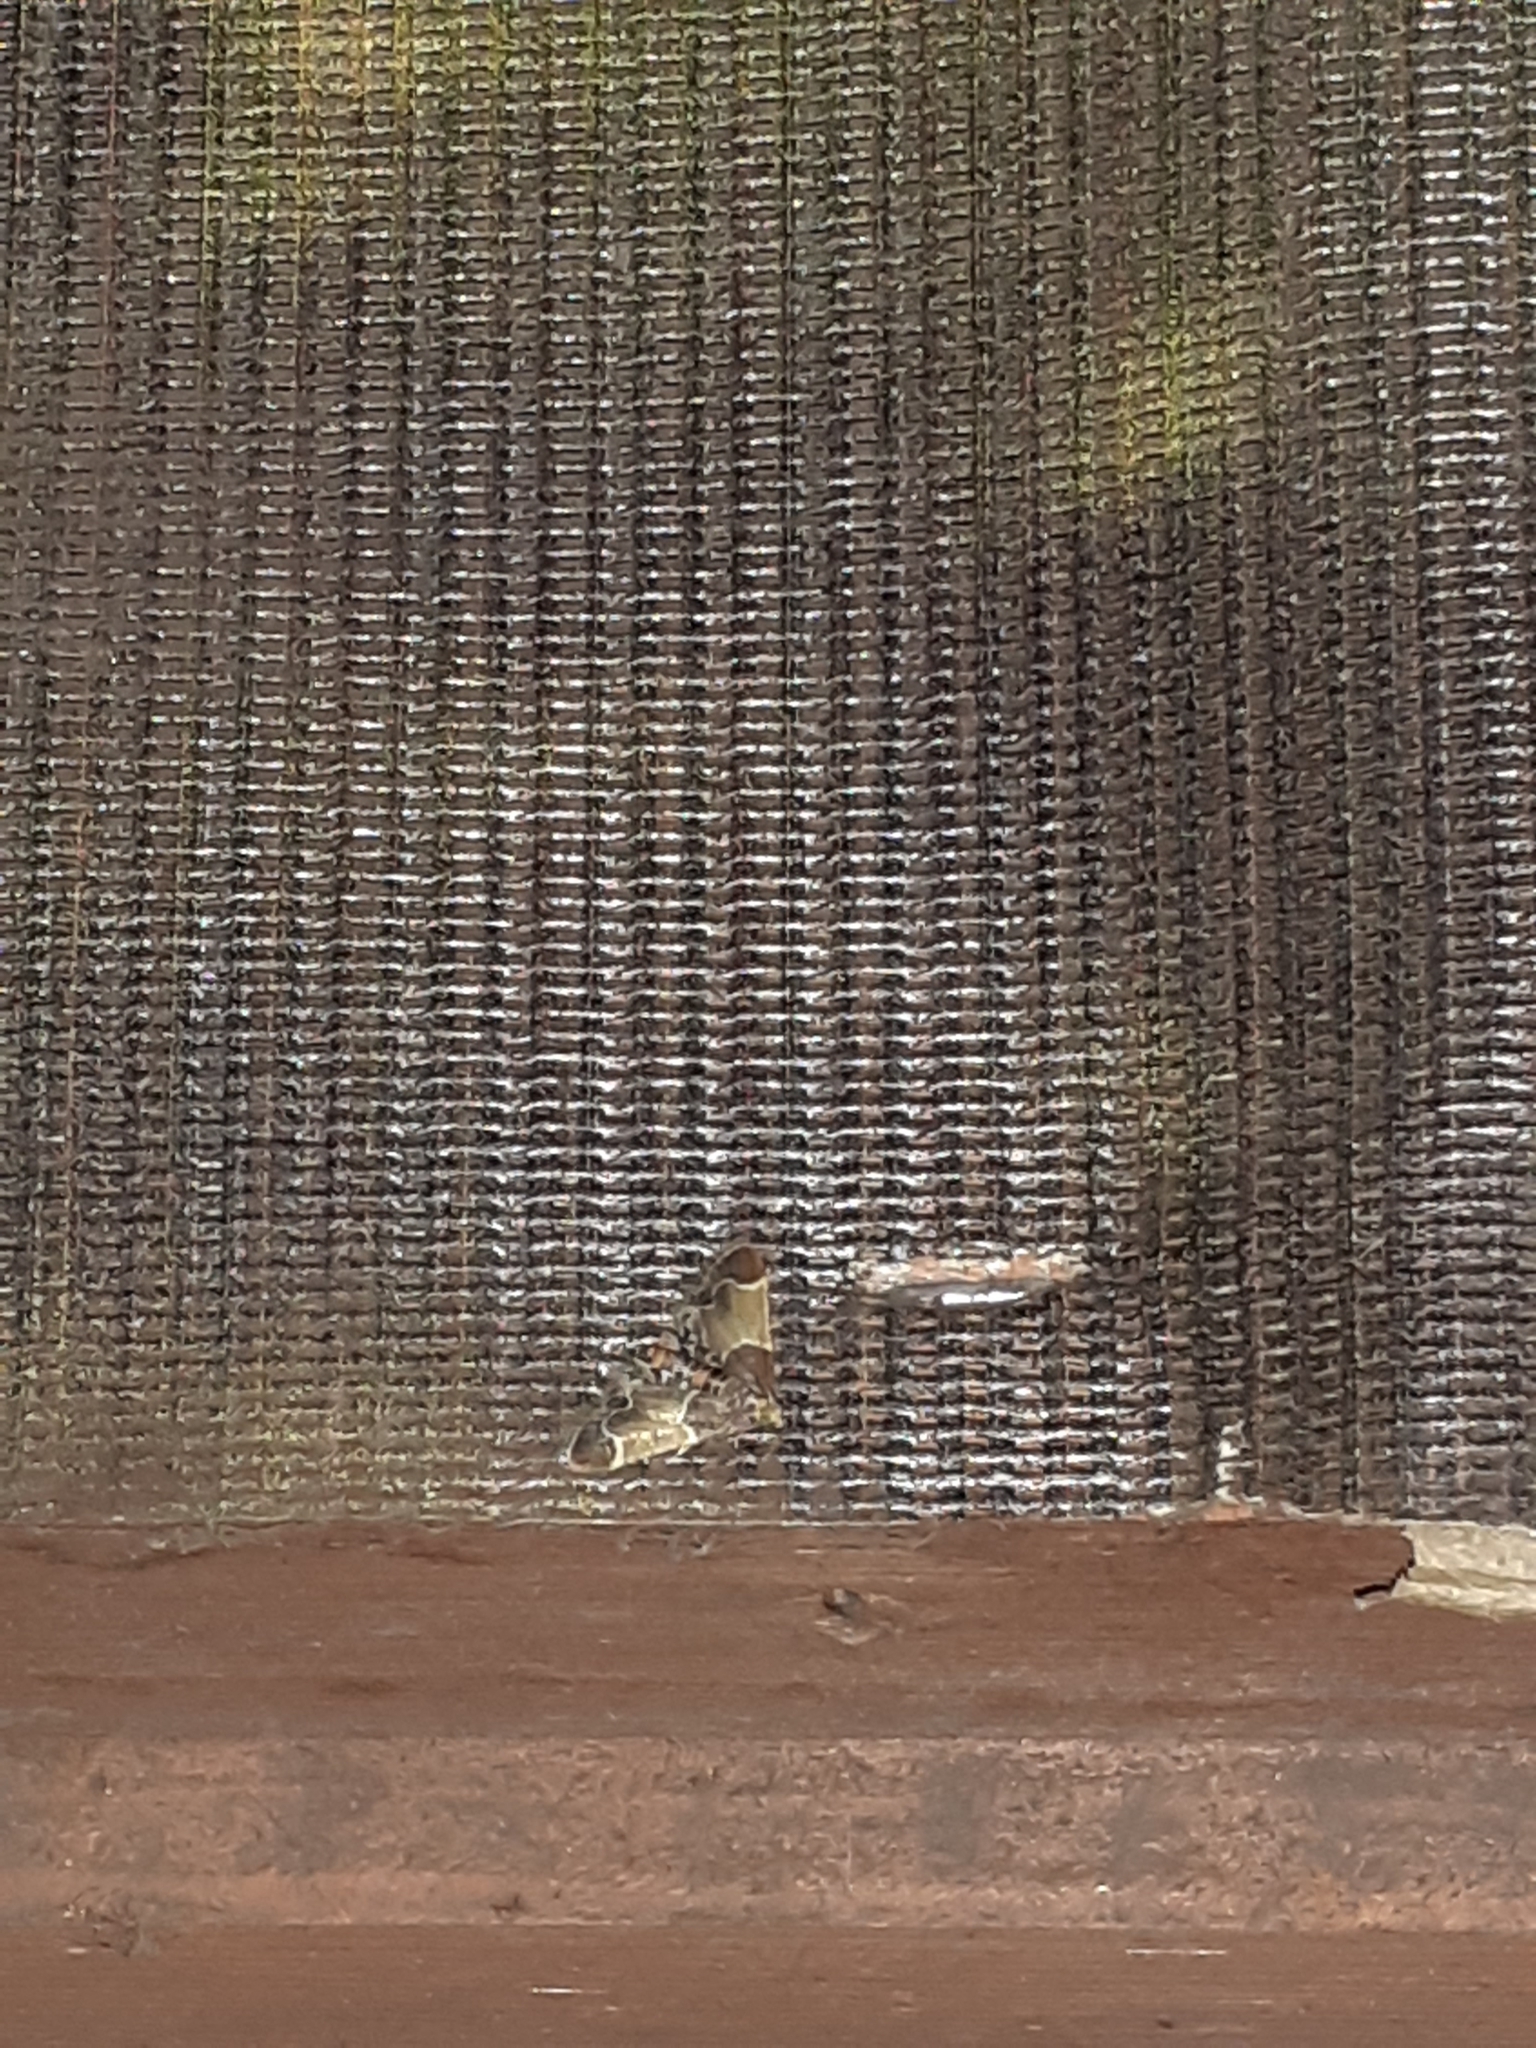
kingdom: Animalia
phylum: Arthropoda
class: Insecta
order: Lepidoptera
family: Pyralidae
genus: Pyralis
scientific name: Pyralis farinalis
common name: Meal moth
